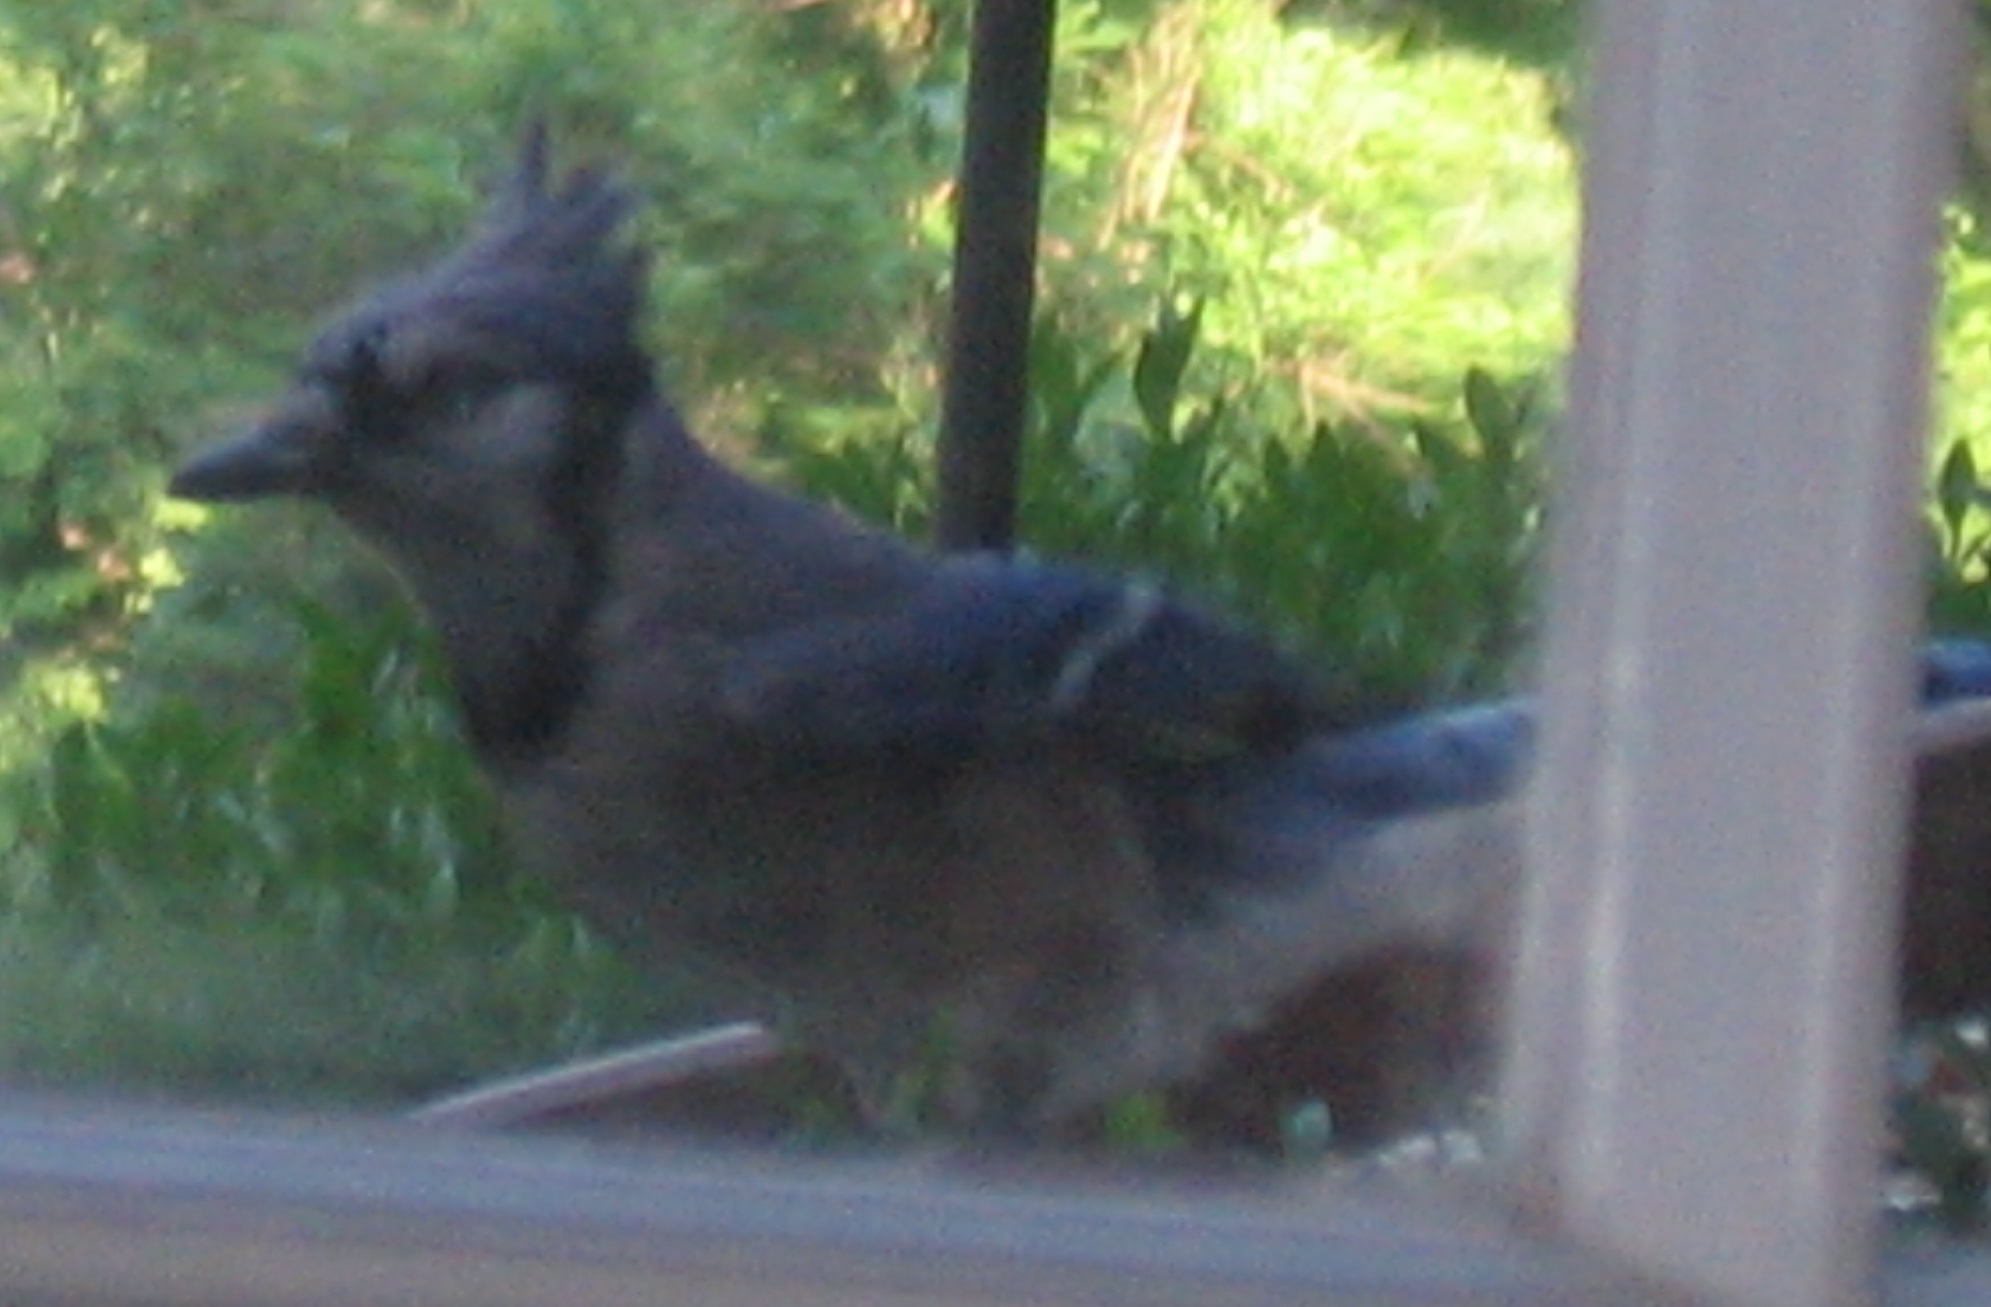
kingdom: Animalia
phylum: Chordata
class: Aves
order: Passeriformes
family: Corvidae
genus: Cyanocitta
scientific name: Cyanocitta cristata
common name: Blue jay
